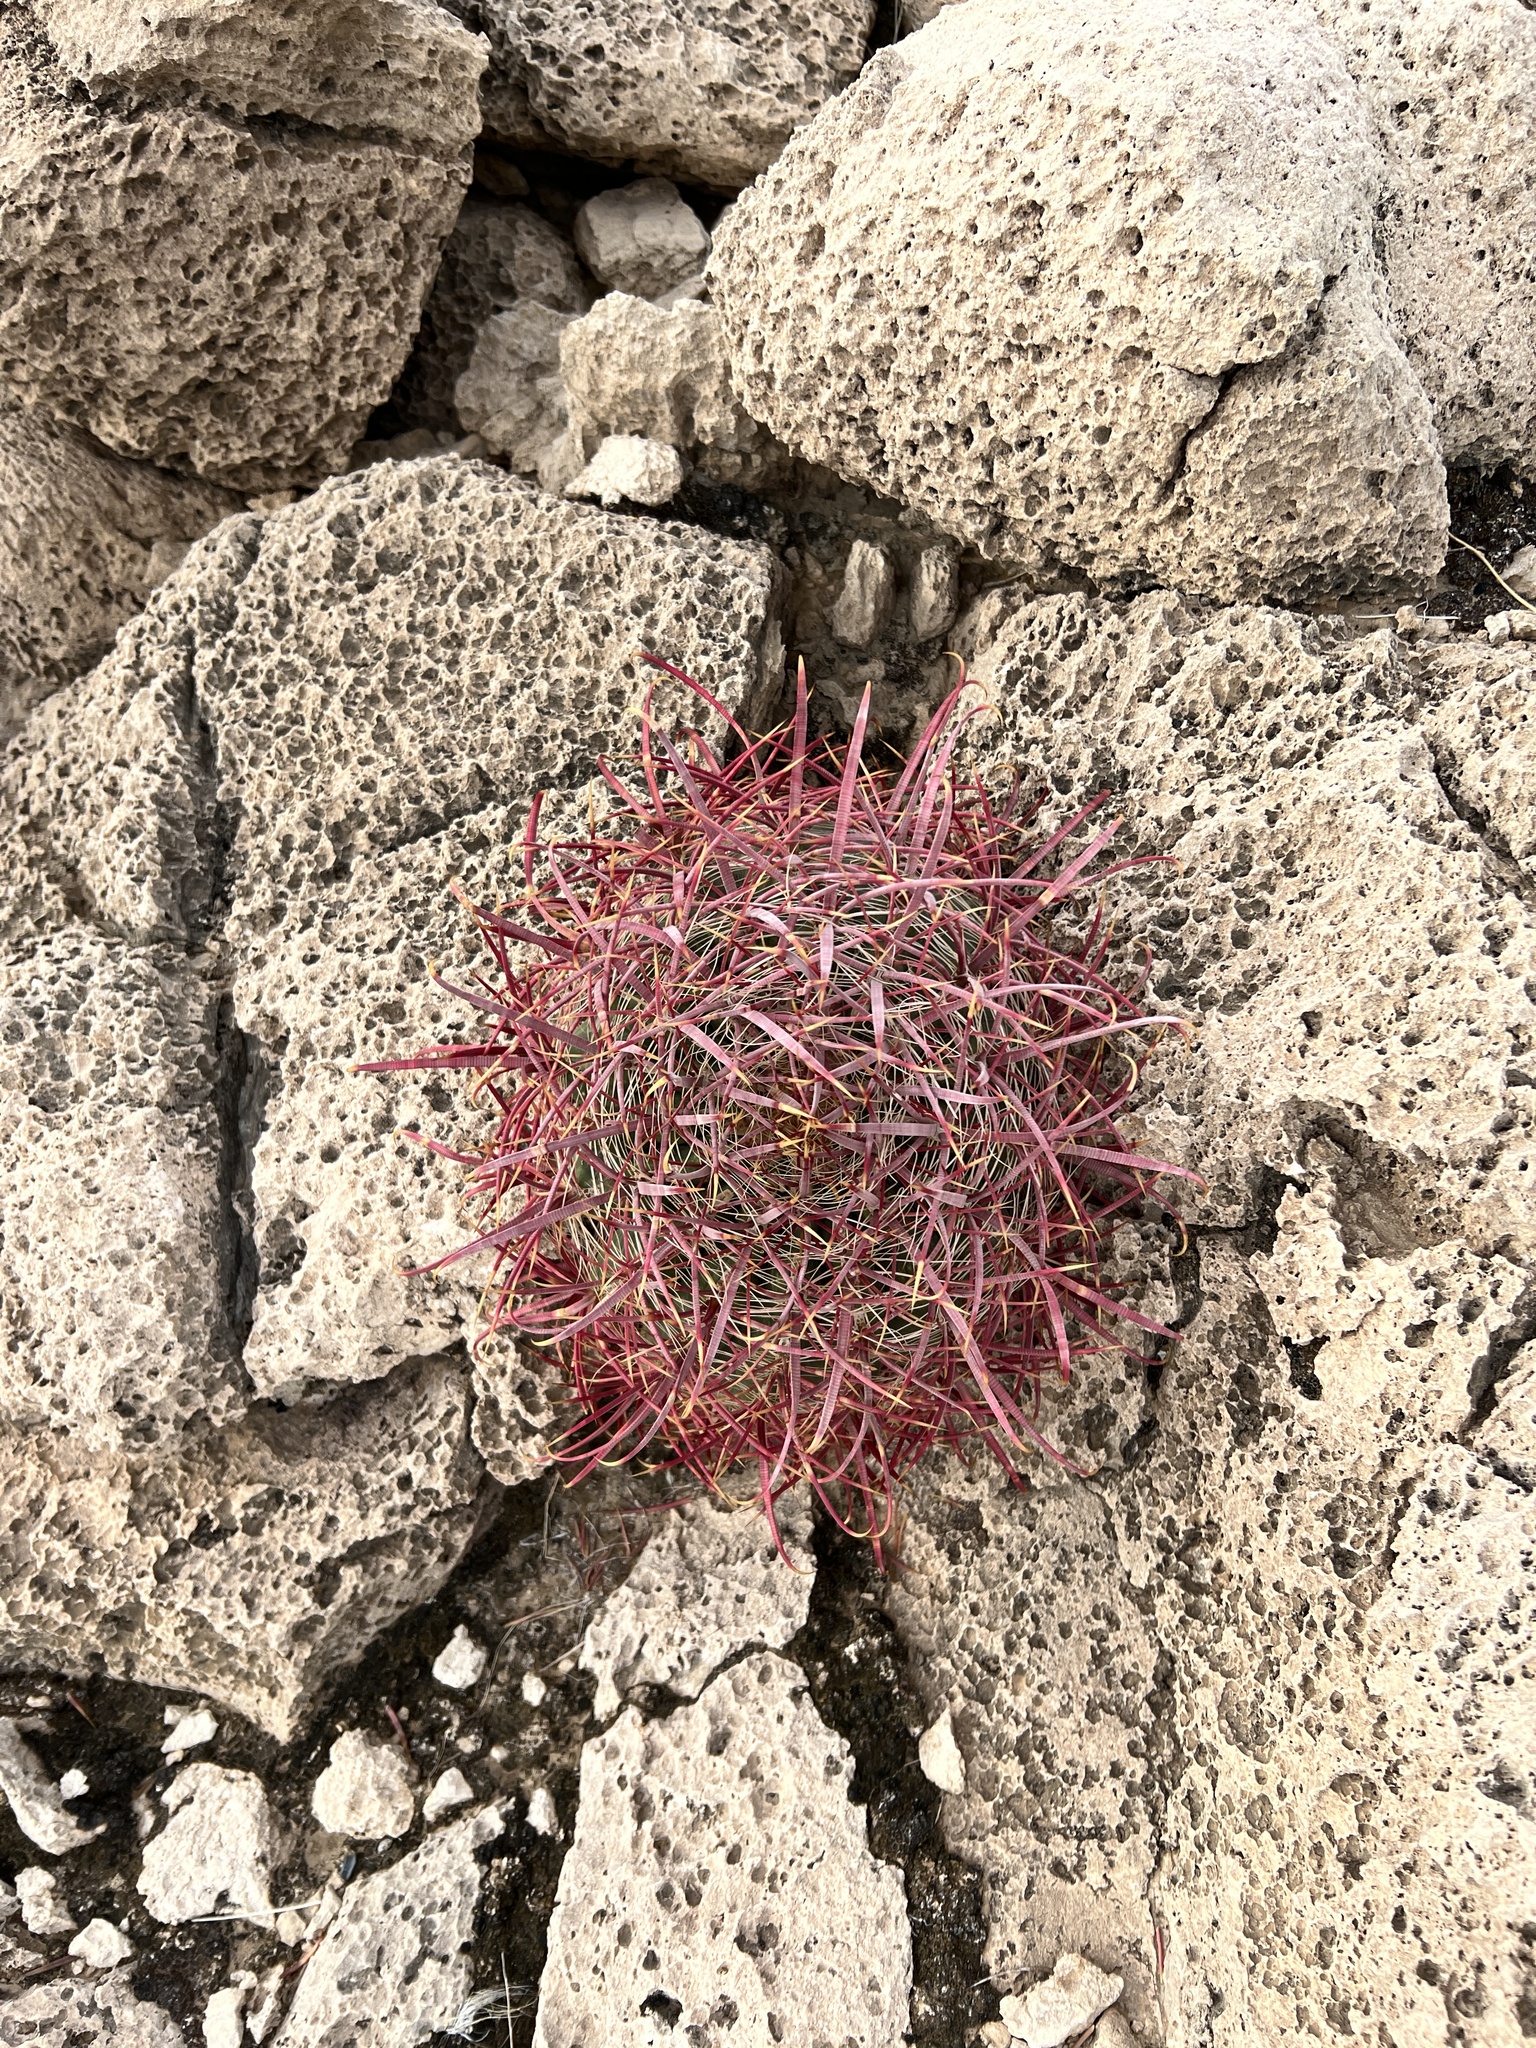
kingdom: Plantae
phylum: Tracheophyta
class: Magnoliopsida
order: Caryophyllales
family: Cactaceae
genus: Ferocactus
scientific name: Ferocactus cylindraceus
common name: California barrel cactus
